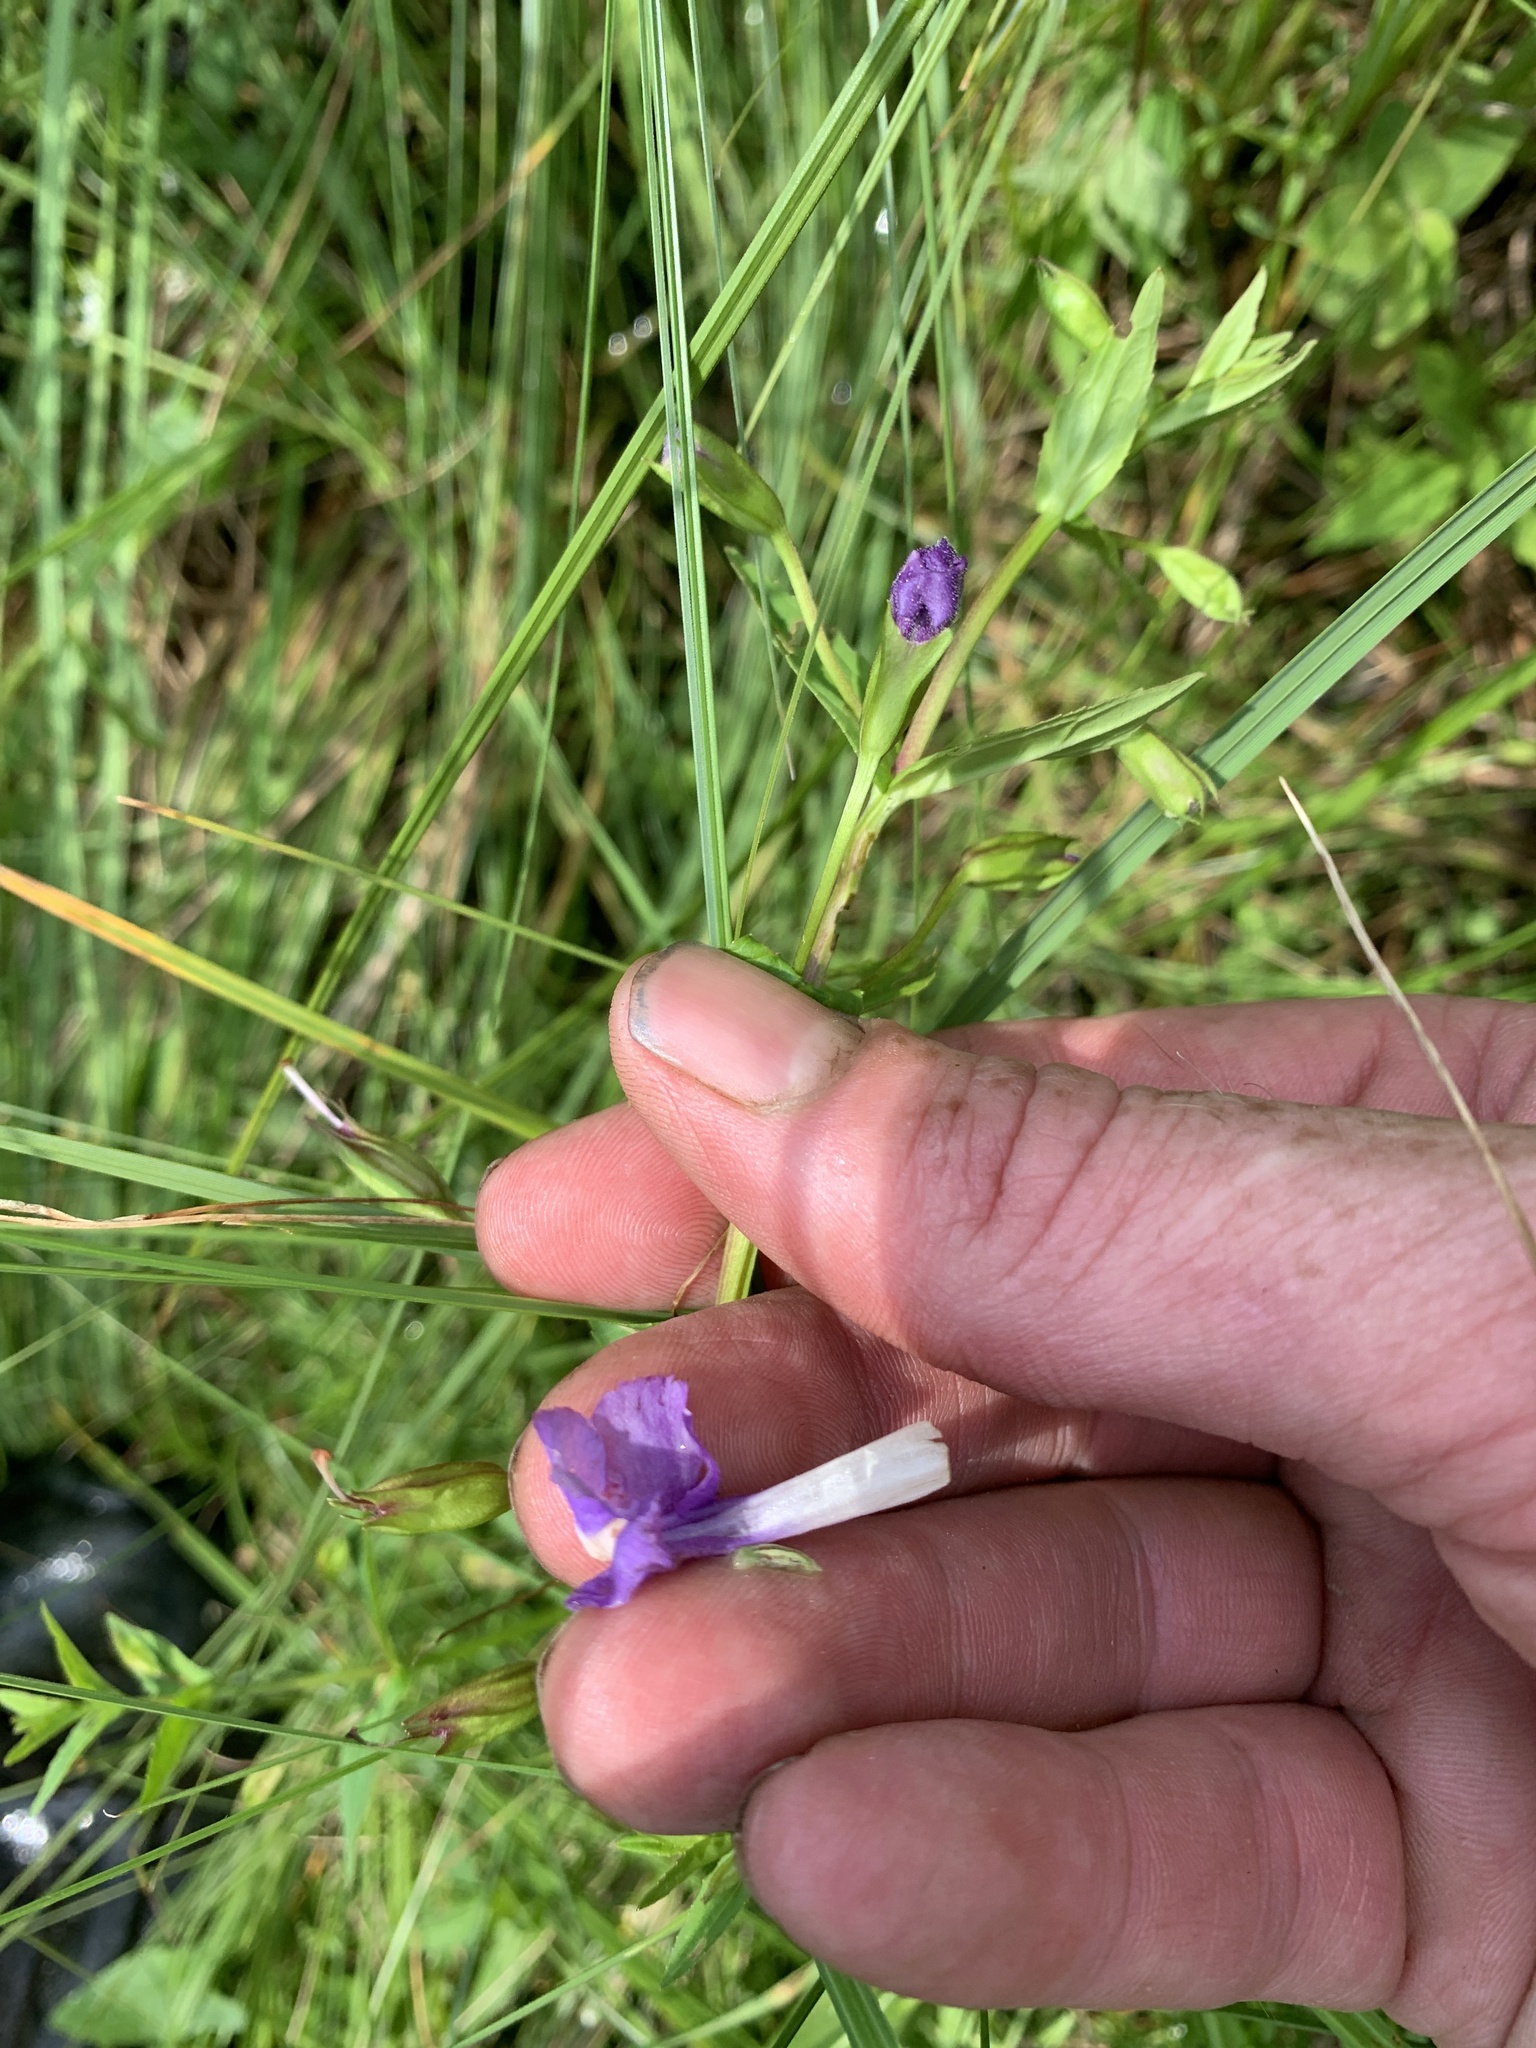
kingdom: Plantae
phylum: Tracheophyta
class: Magnoliopsida
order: Lamiales
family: Phrymaceae
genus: Mimulus
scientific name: Mimulus ringens
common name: Allegheny monkeyflower
